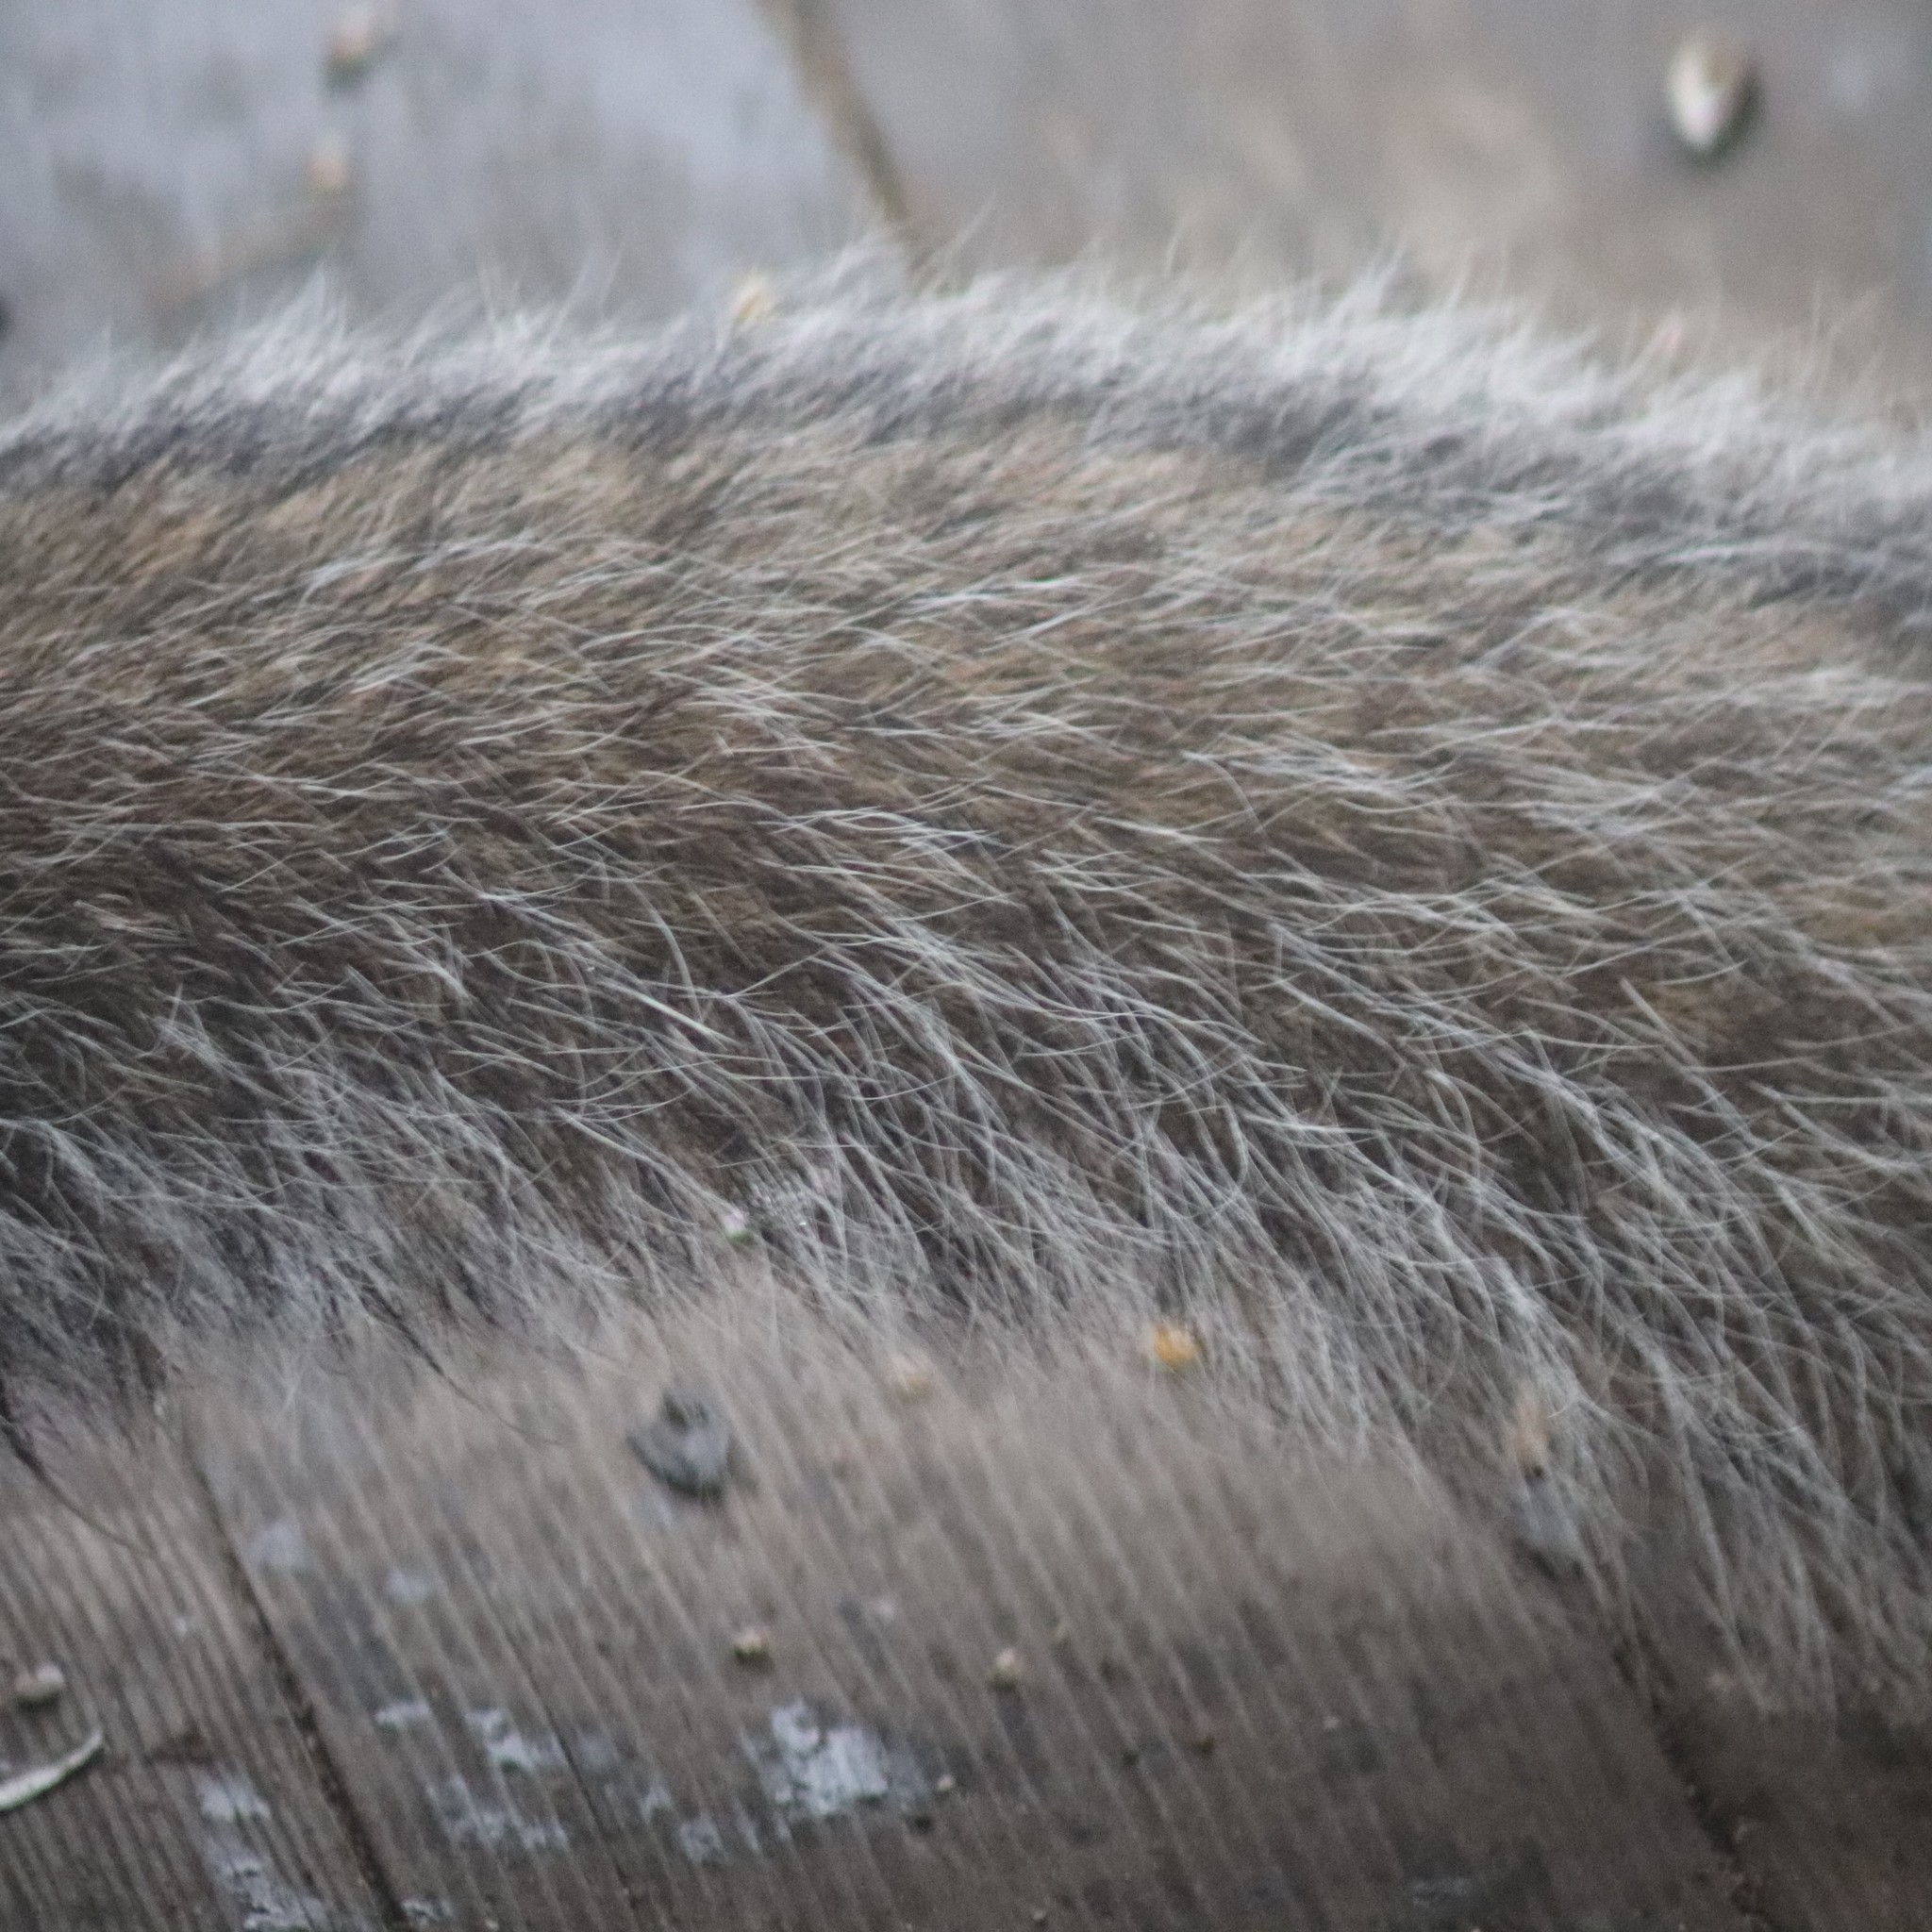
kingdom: Animalia
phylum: Chordata
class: Mammalia
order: Rodentia
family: Sciuridae
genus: Sciurus
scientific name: Sciurus carolinensis
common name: Eastern gray squirrel
